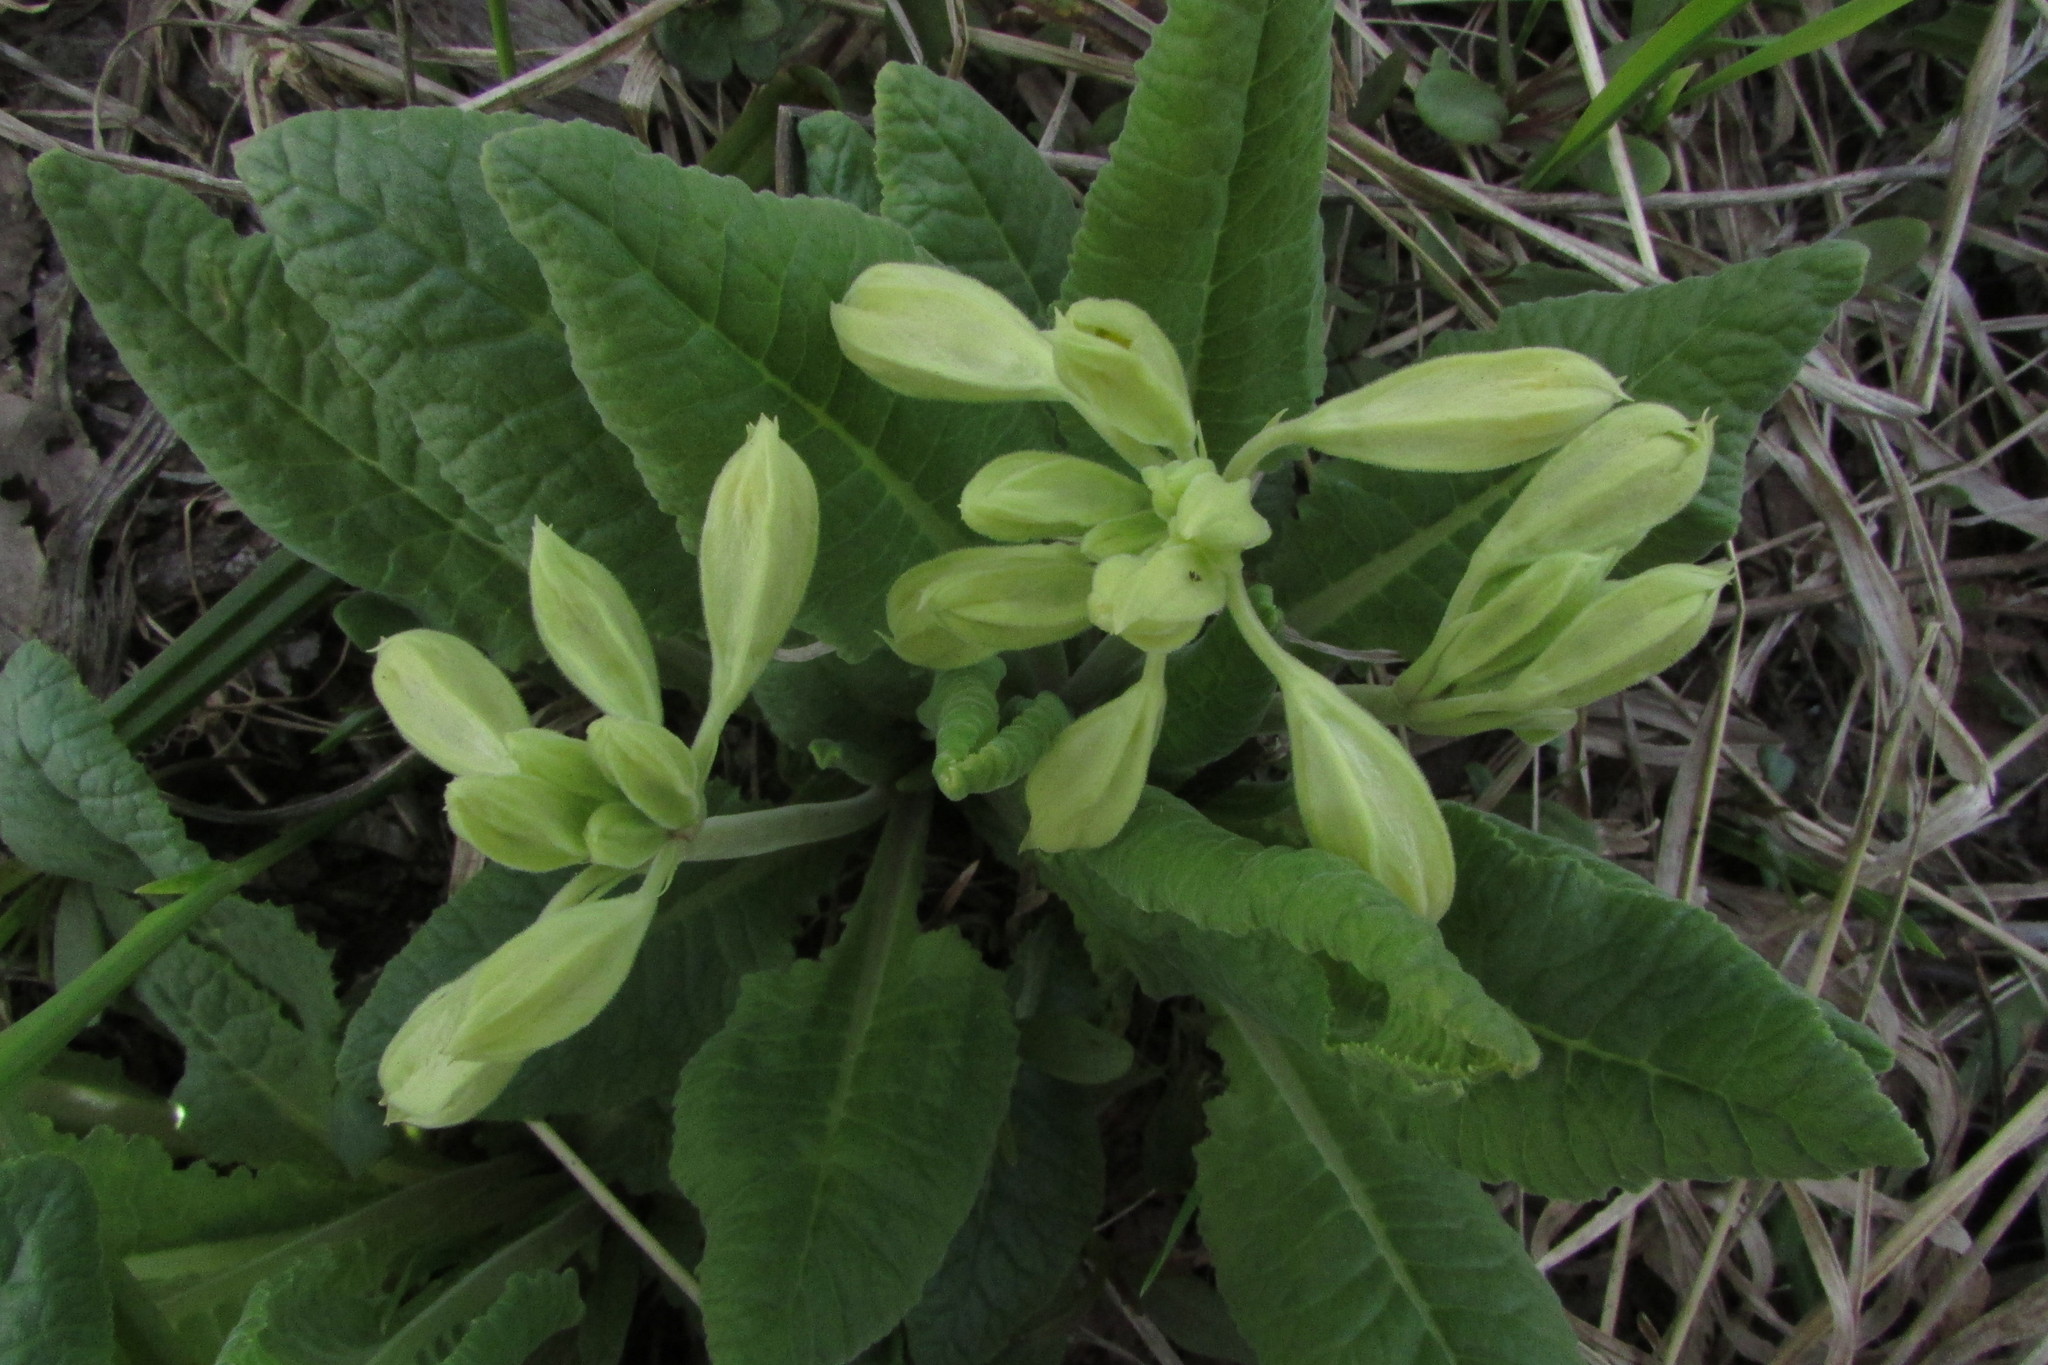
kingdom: Plantae
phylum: Tracheophyta
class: Magnoliopsida
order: Ericales
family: Primulaceae
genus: Primula
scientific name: Primula veris
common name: Cowslip
